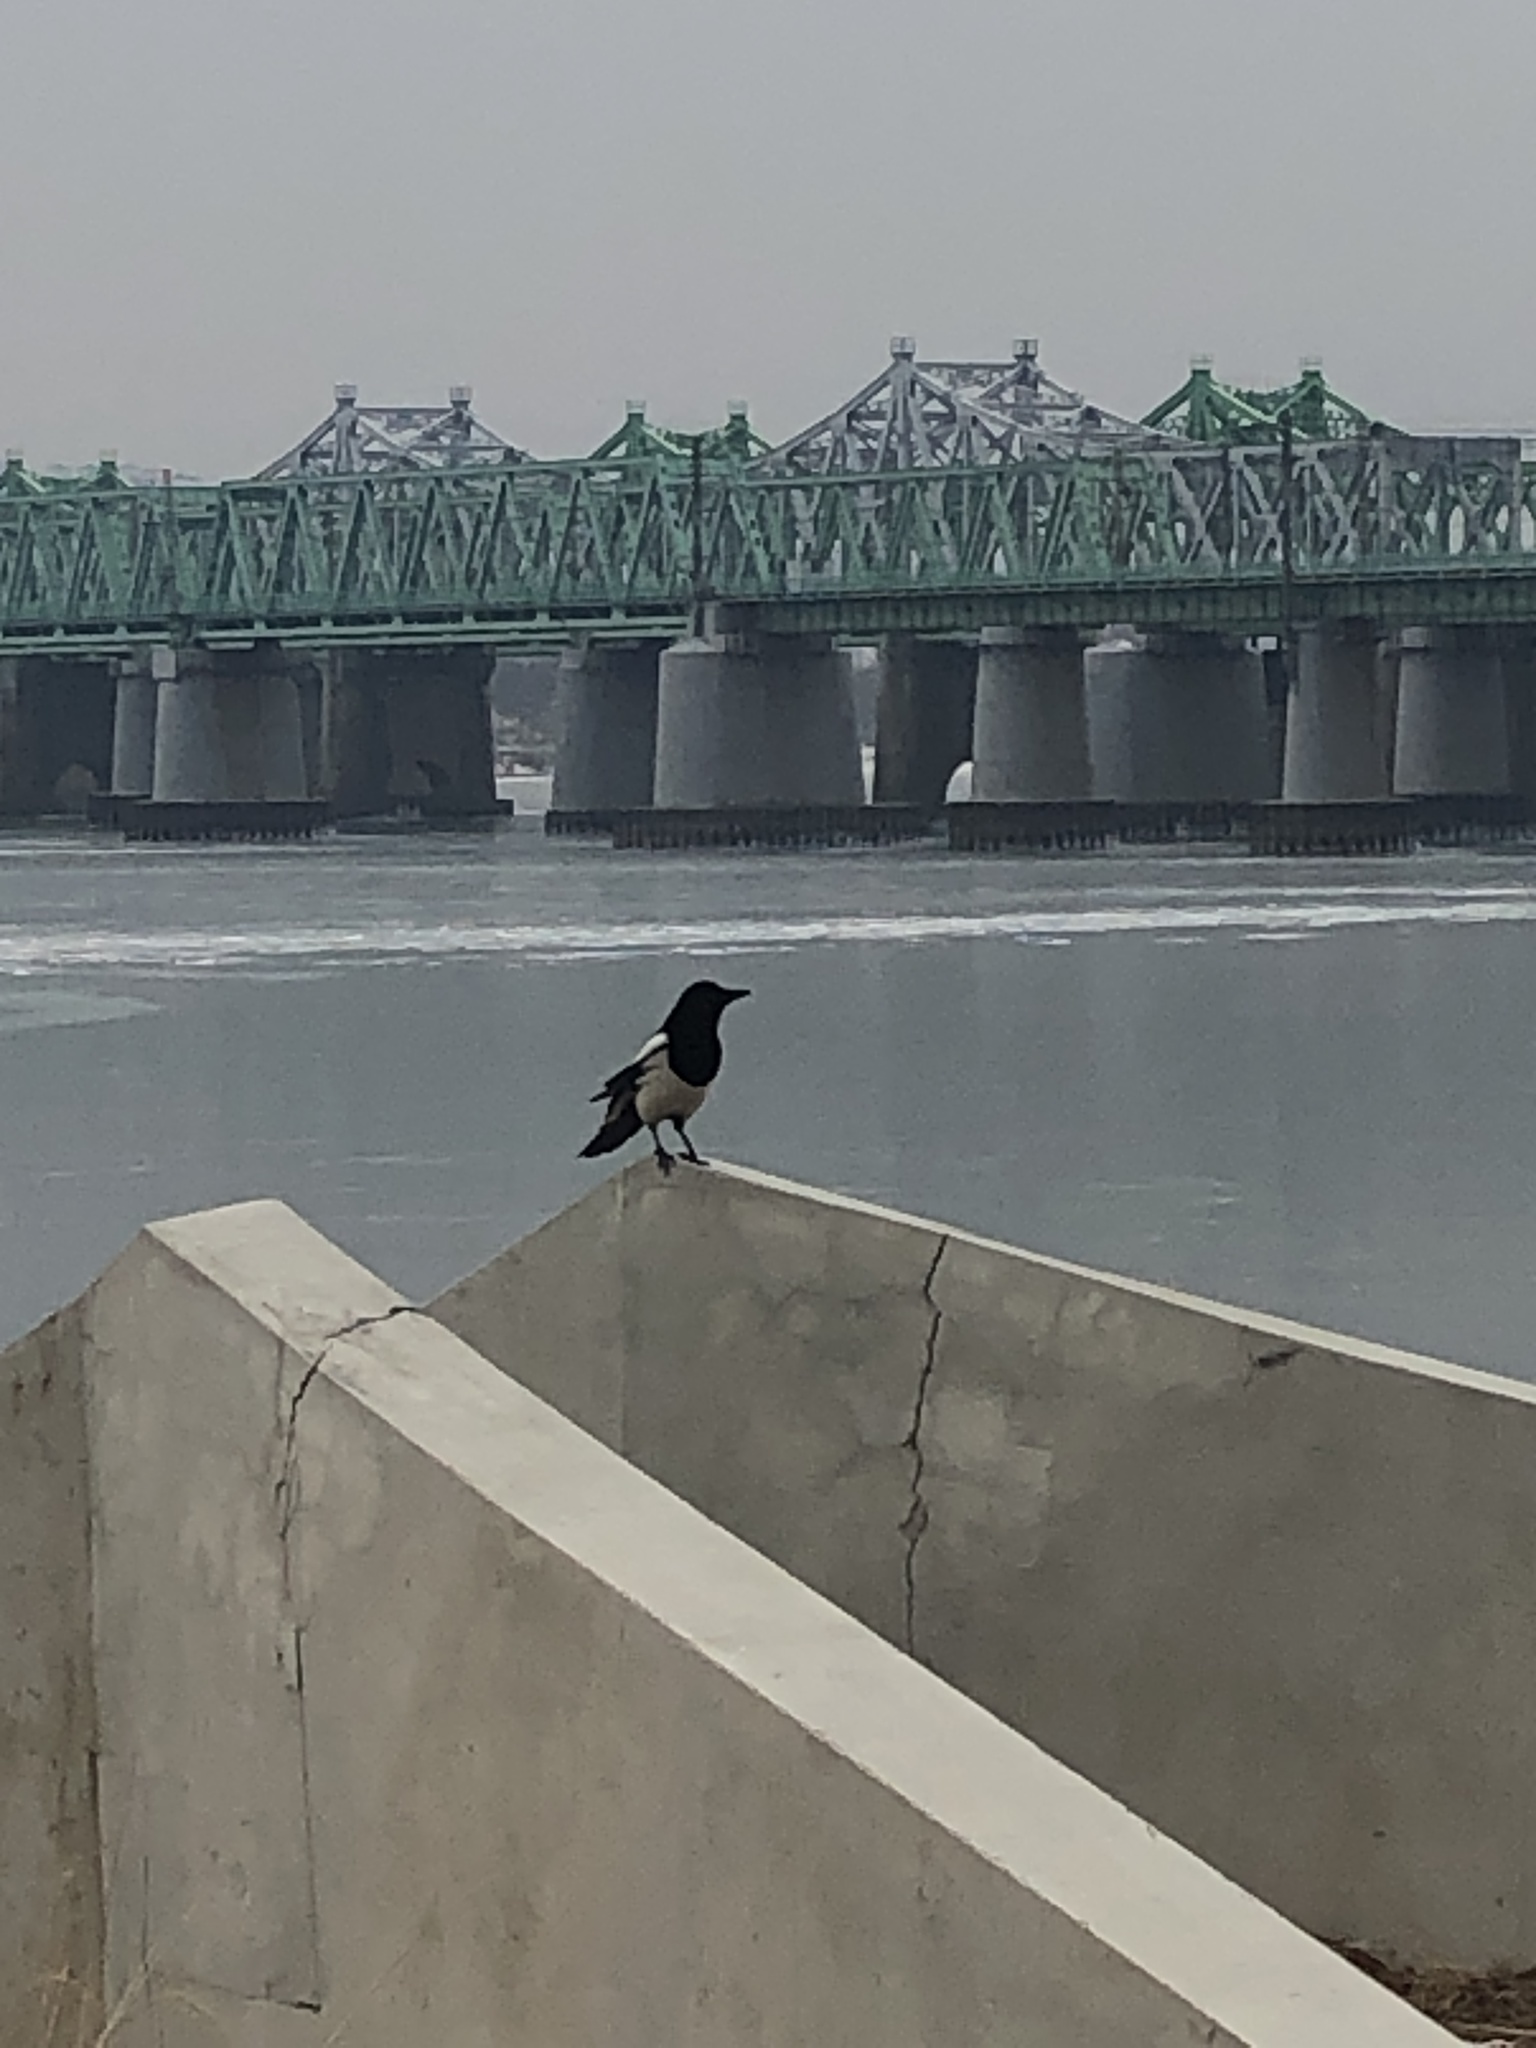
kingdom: Animalia
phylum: Chordata
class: Aves
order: Passeriformes
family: Corvidae
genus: Pica
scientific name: Pica serica
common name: Oriental magpie
